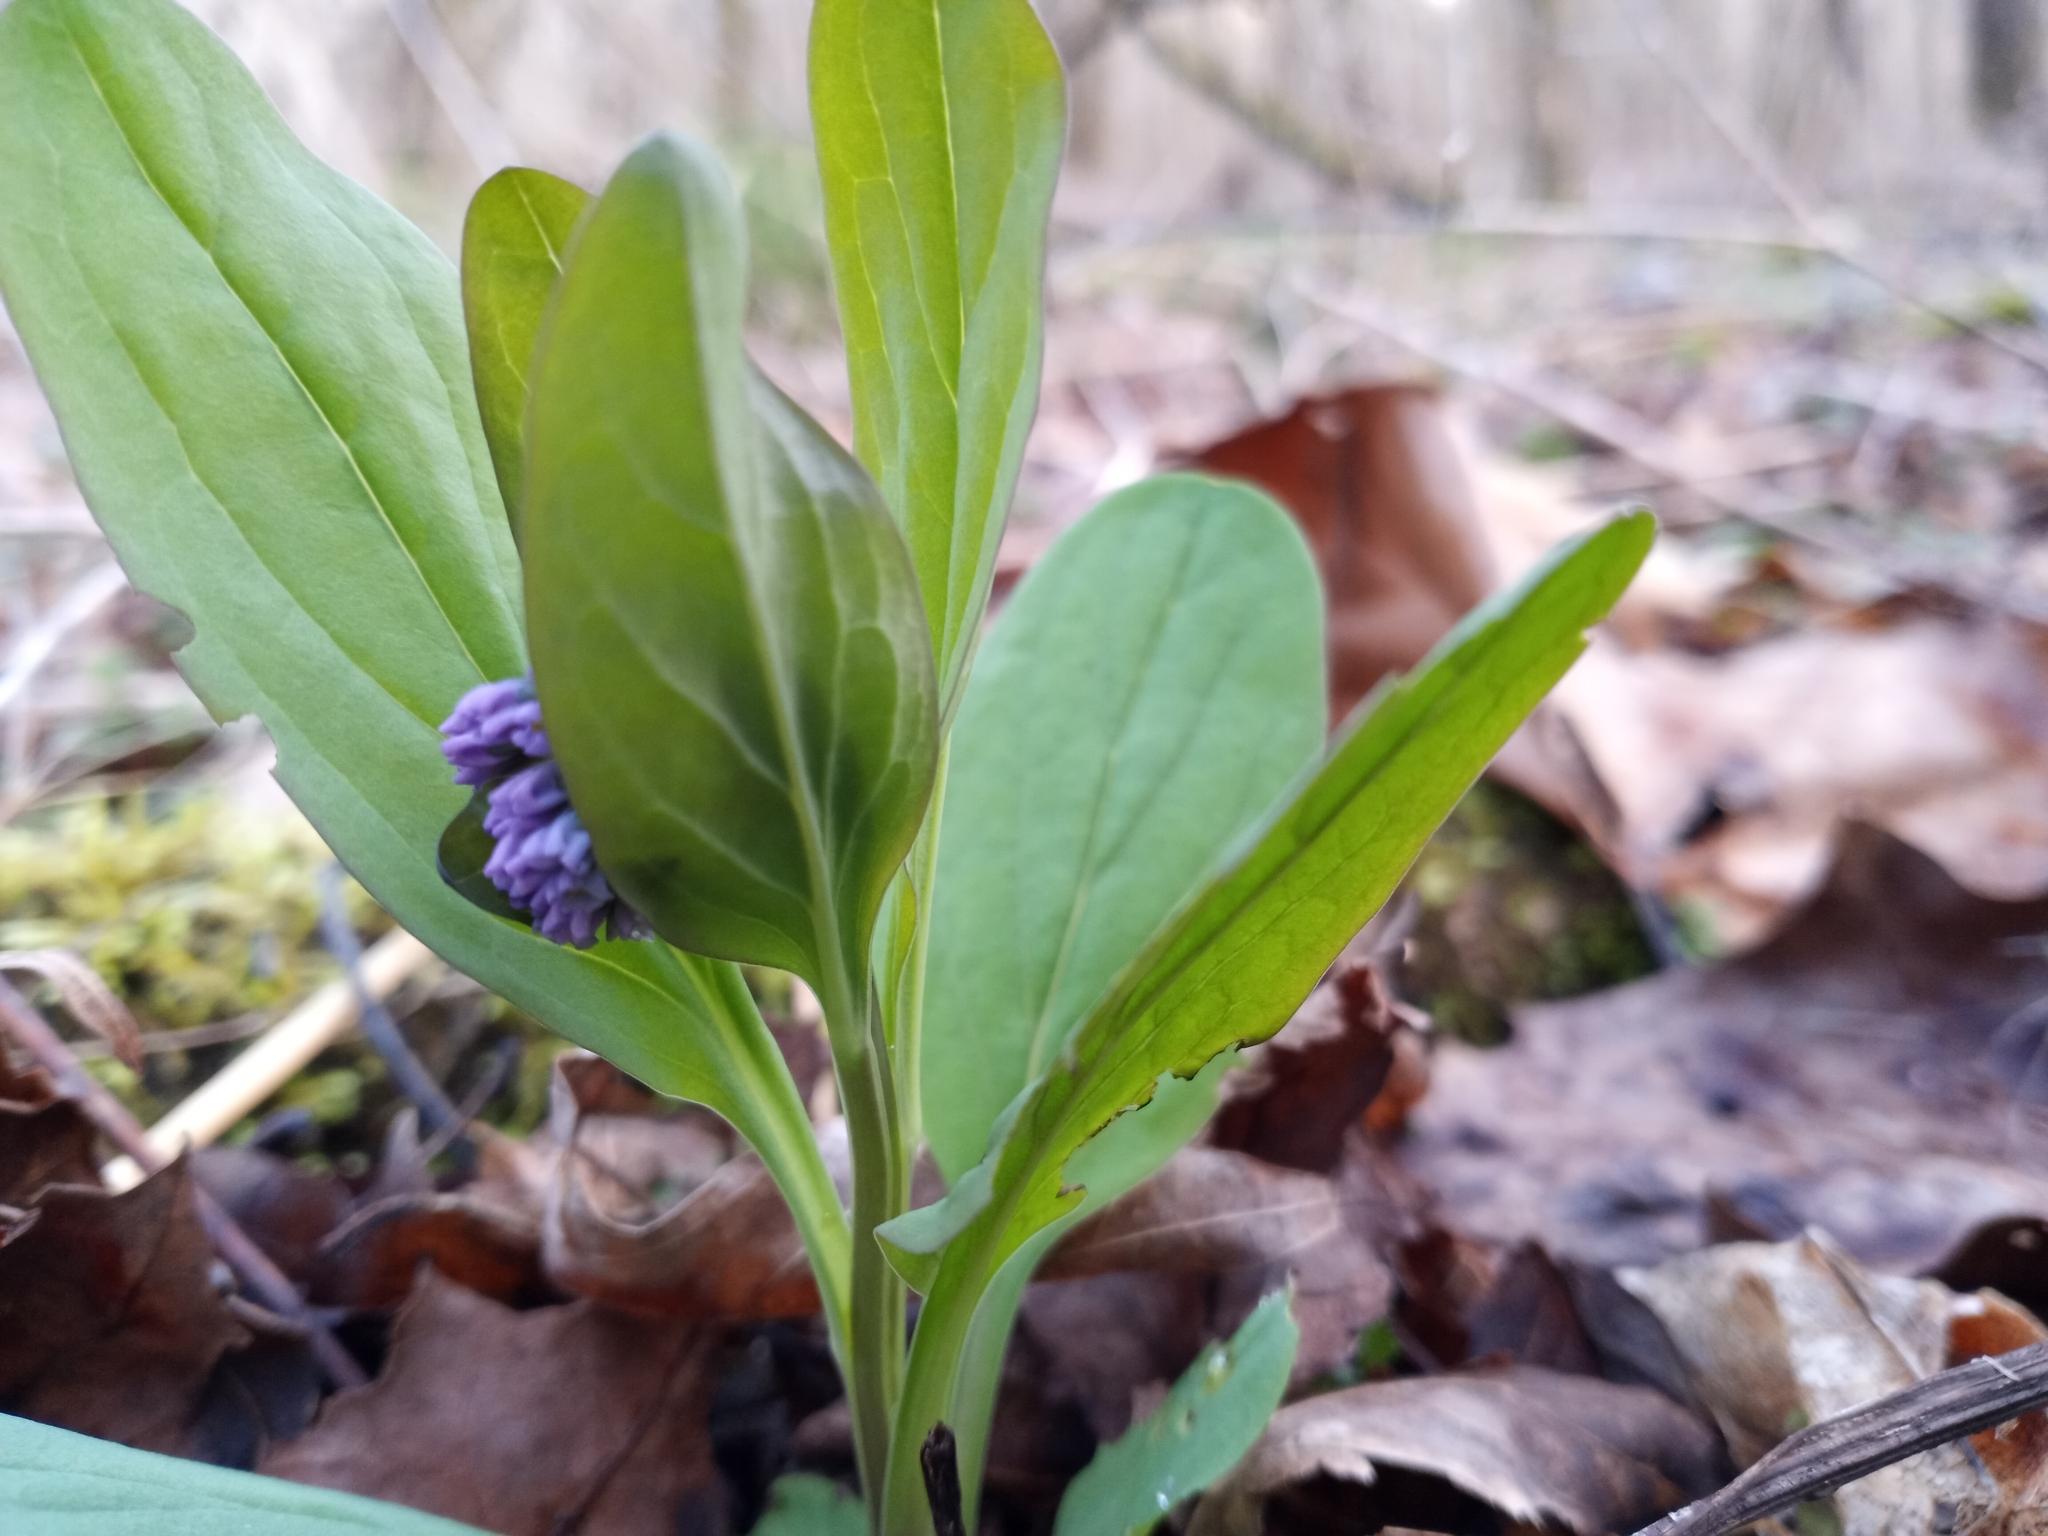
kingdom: Plantae
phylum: Tracheophyta
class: Magnoliopsida
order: Boraginales
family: Boraginaceae
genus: Mertensia
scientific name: Mertensia virginica
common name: Virginia bluebells
